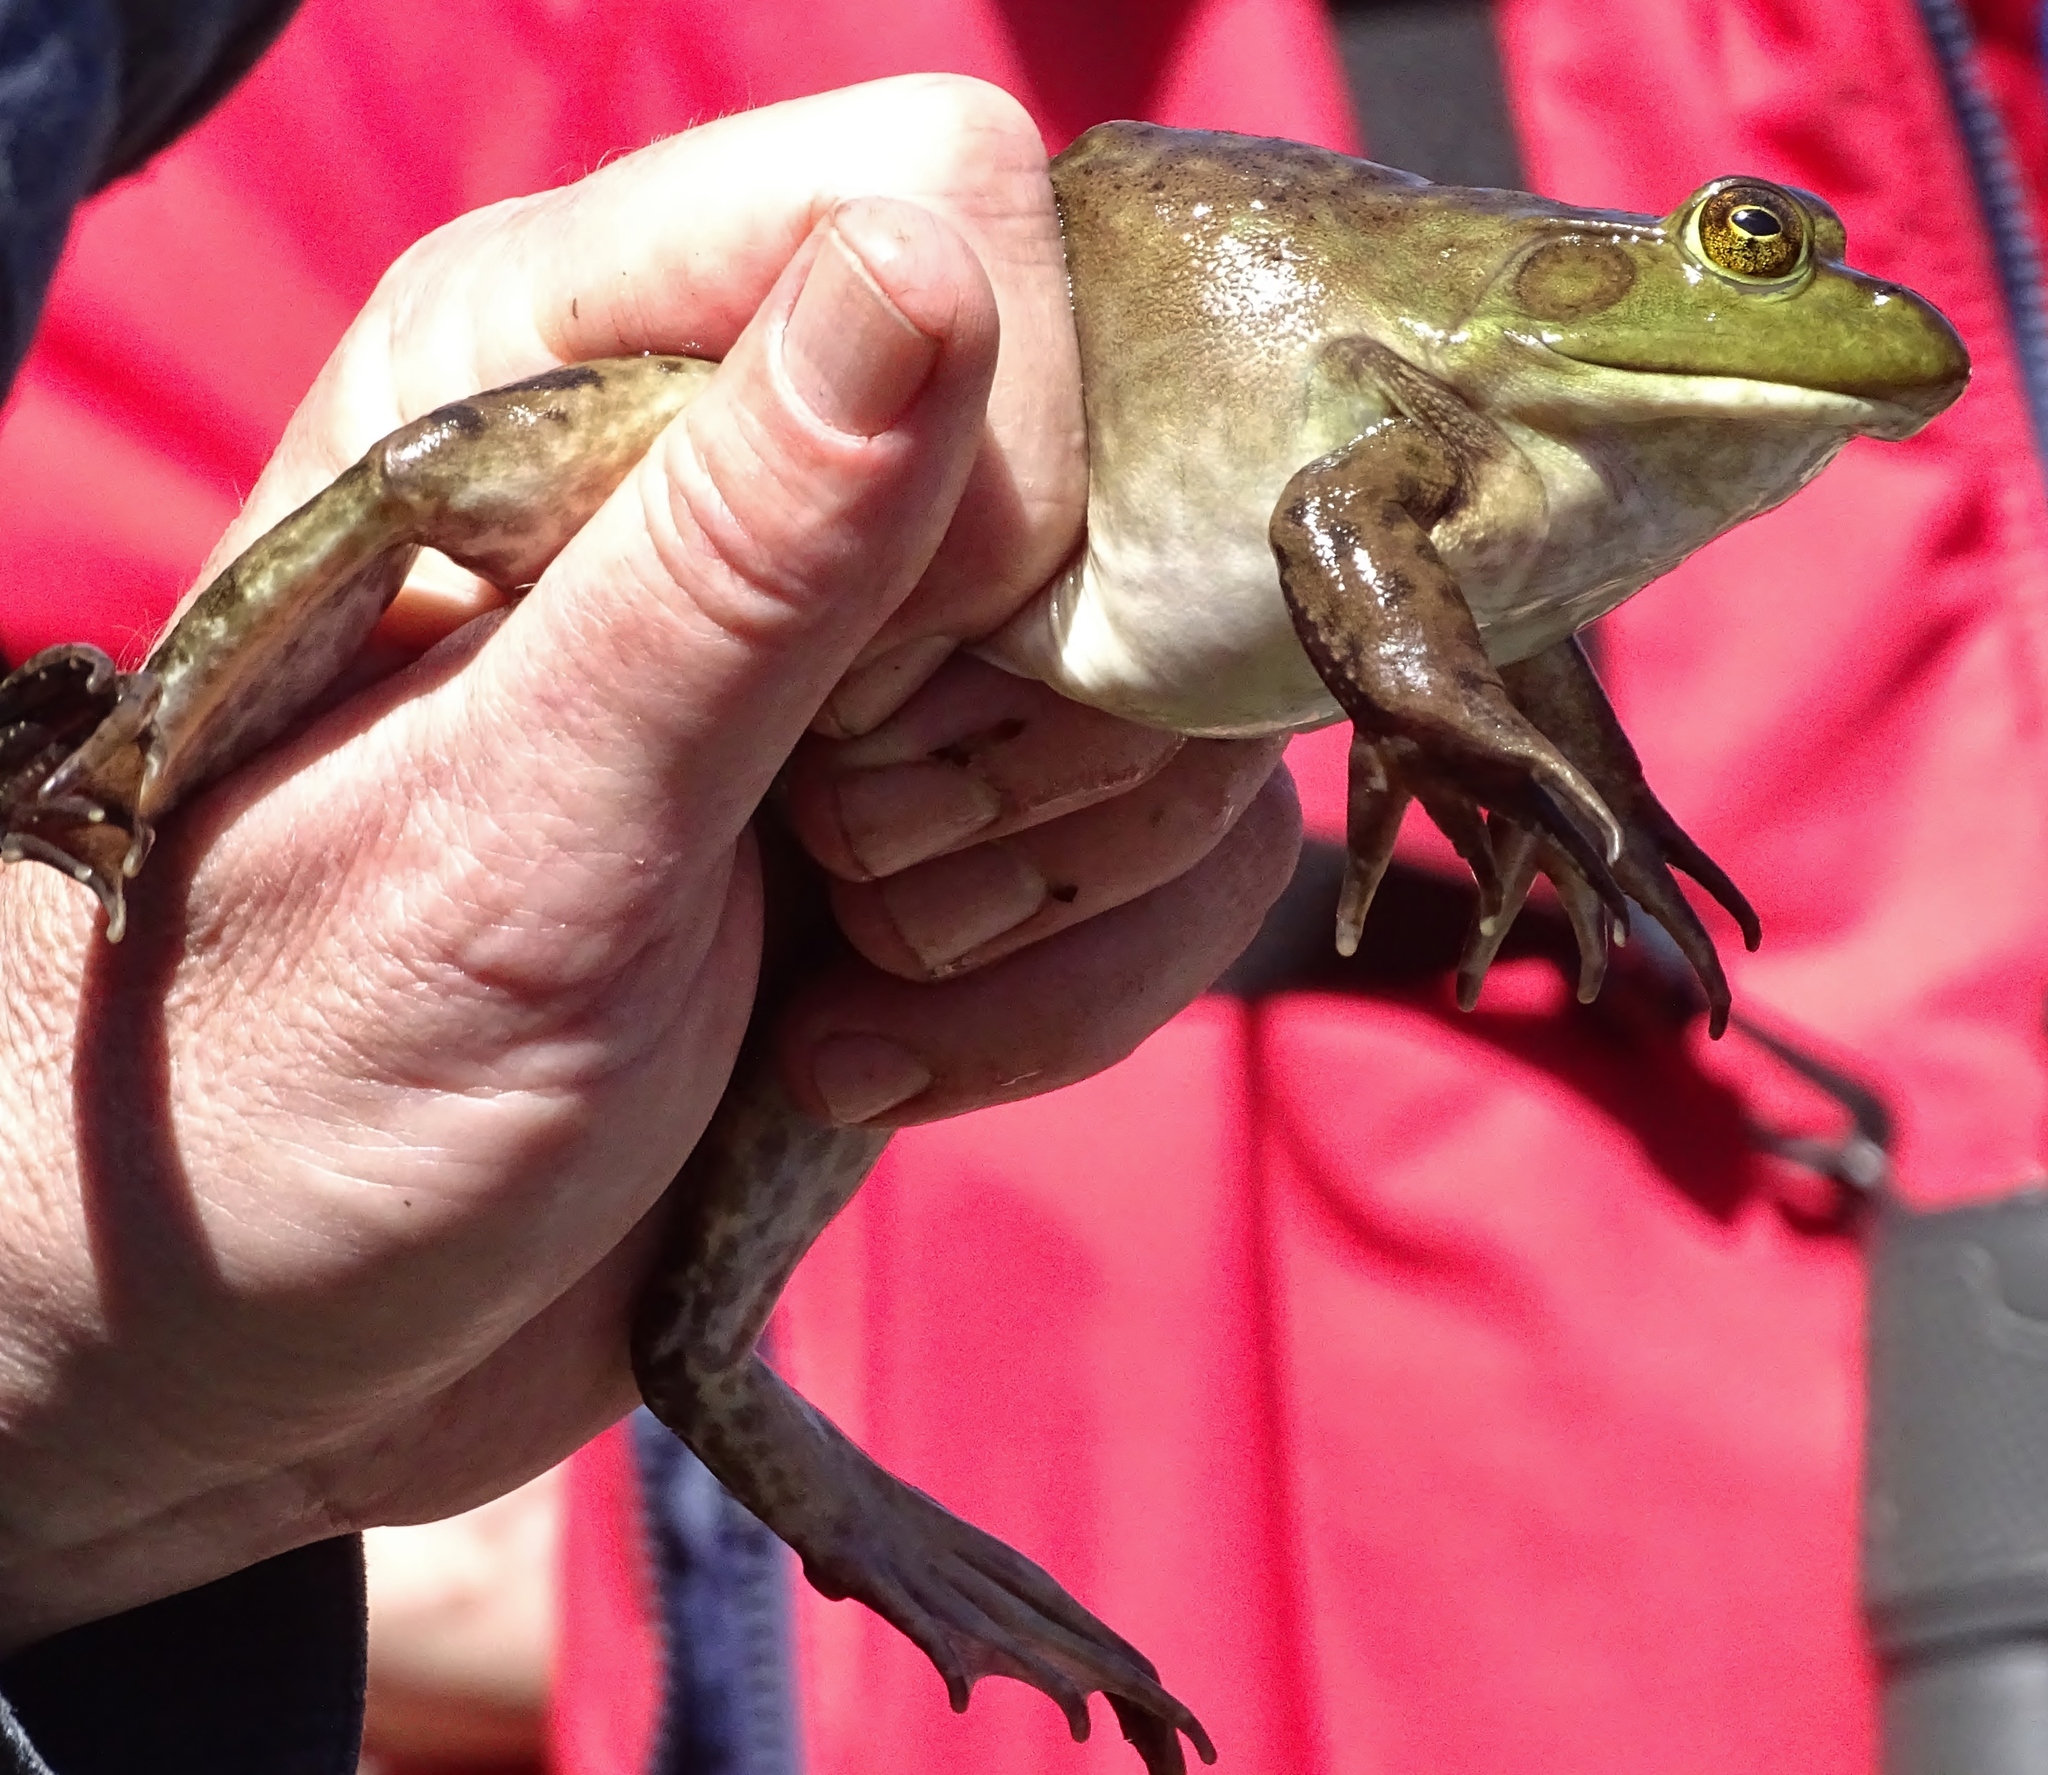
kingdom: Animalia
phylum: Chordata
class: Amphibia
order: Anura
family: Ranidae
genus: Lithobates
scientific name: Lithobates catesbeianus
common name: American bullfrog
